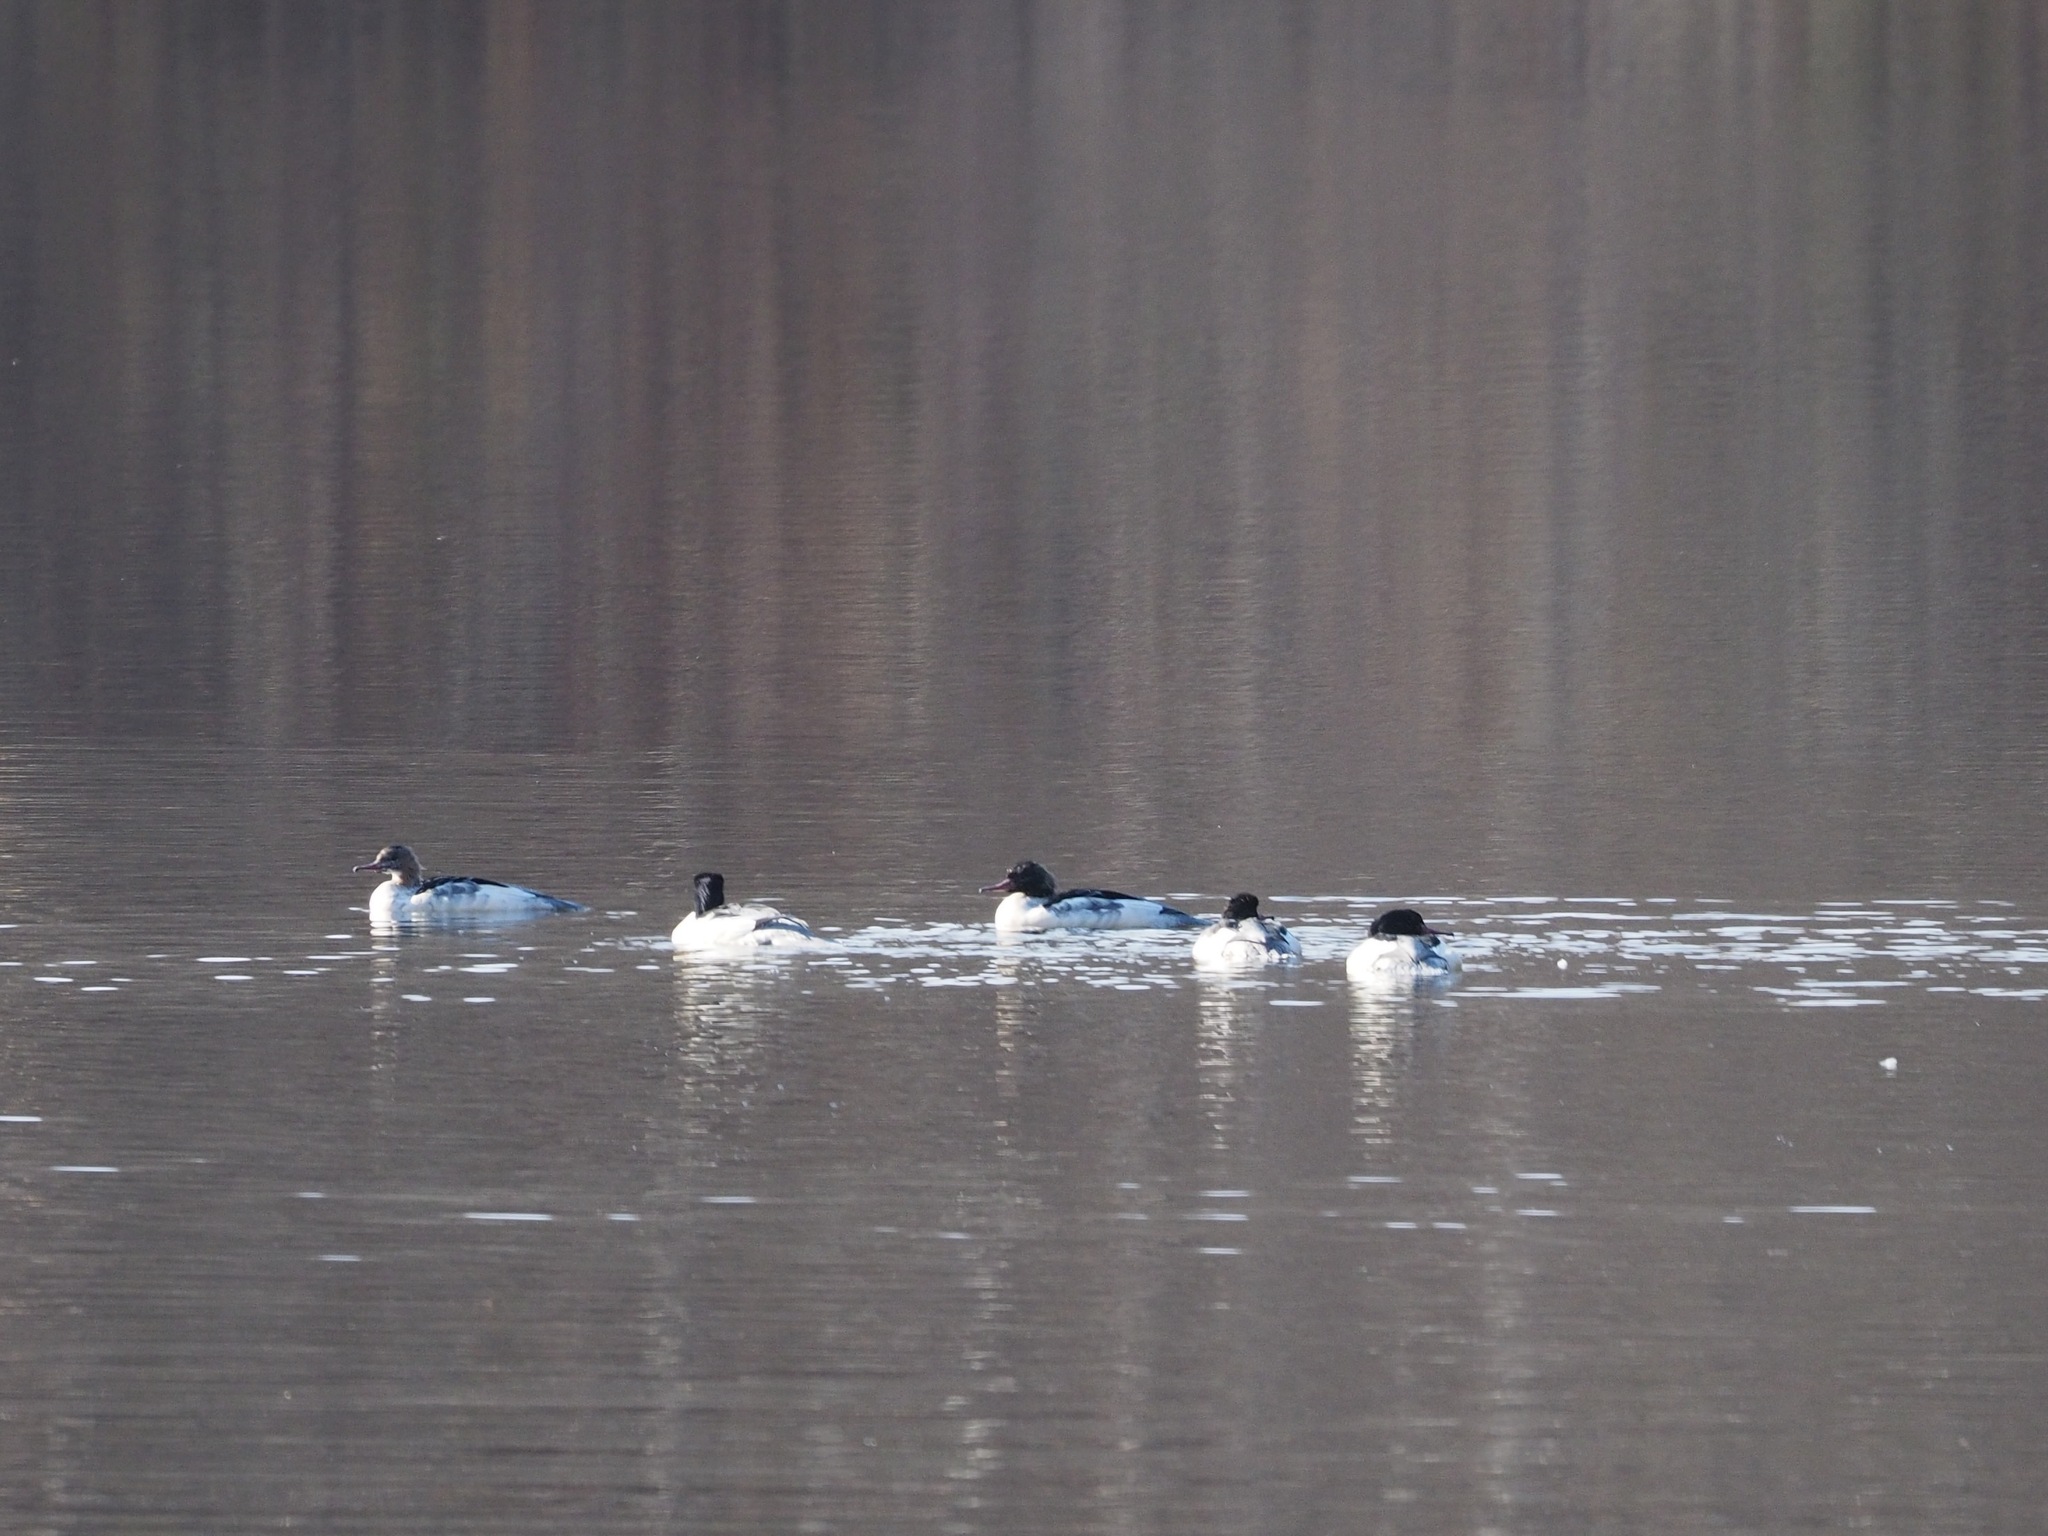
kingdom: Animalia
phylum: Chordata
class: Aves
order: Anseriformes
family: Anatidae
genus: Mergus
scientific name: Mergus merganser
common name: Common merganser
